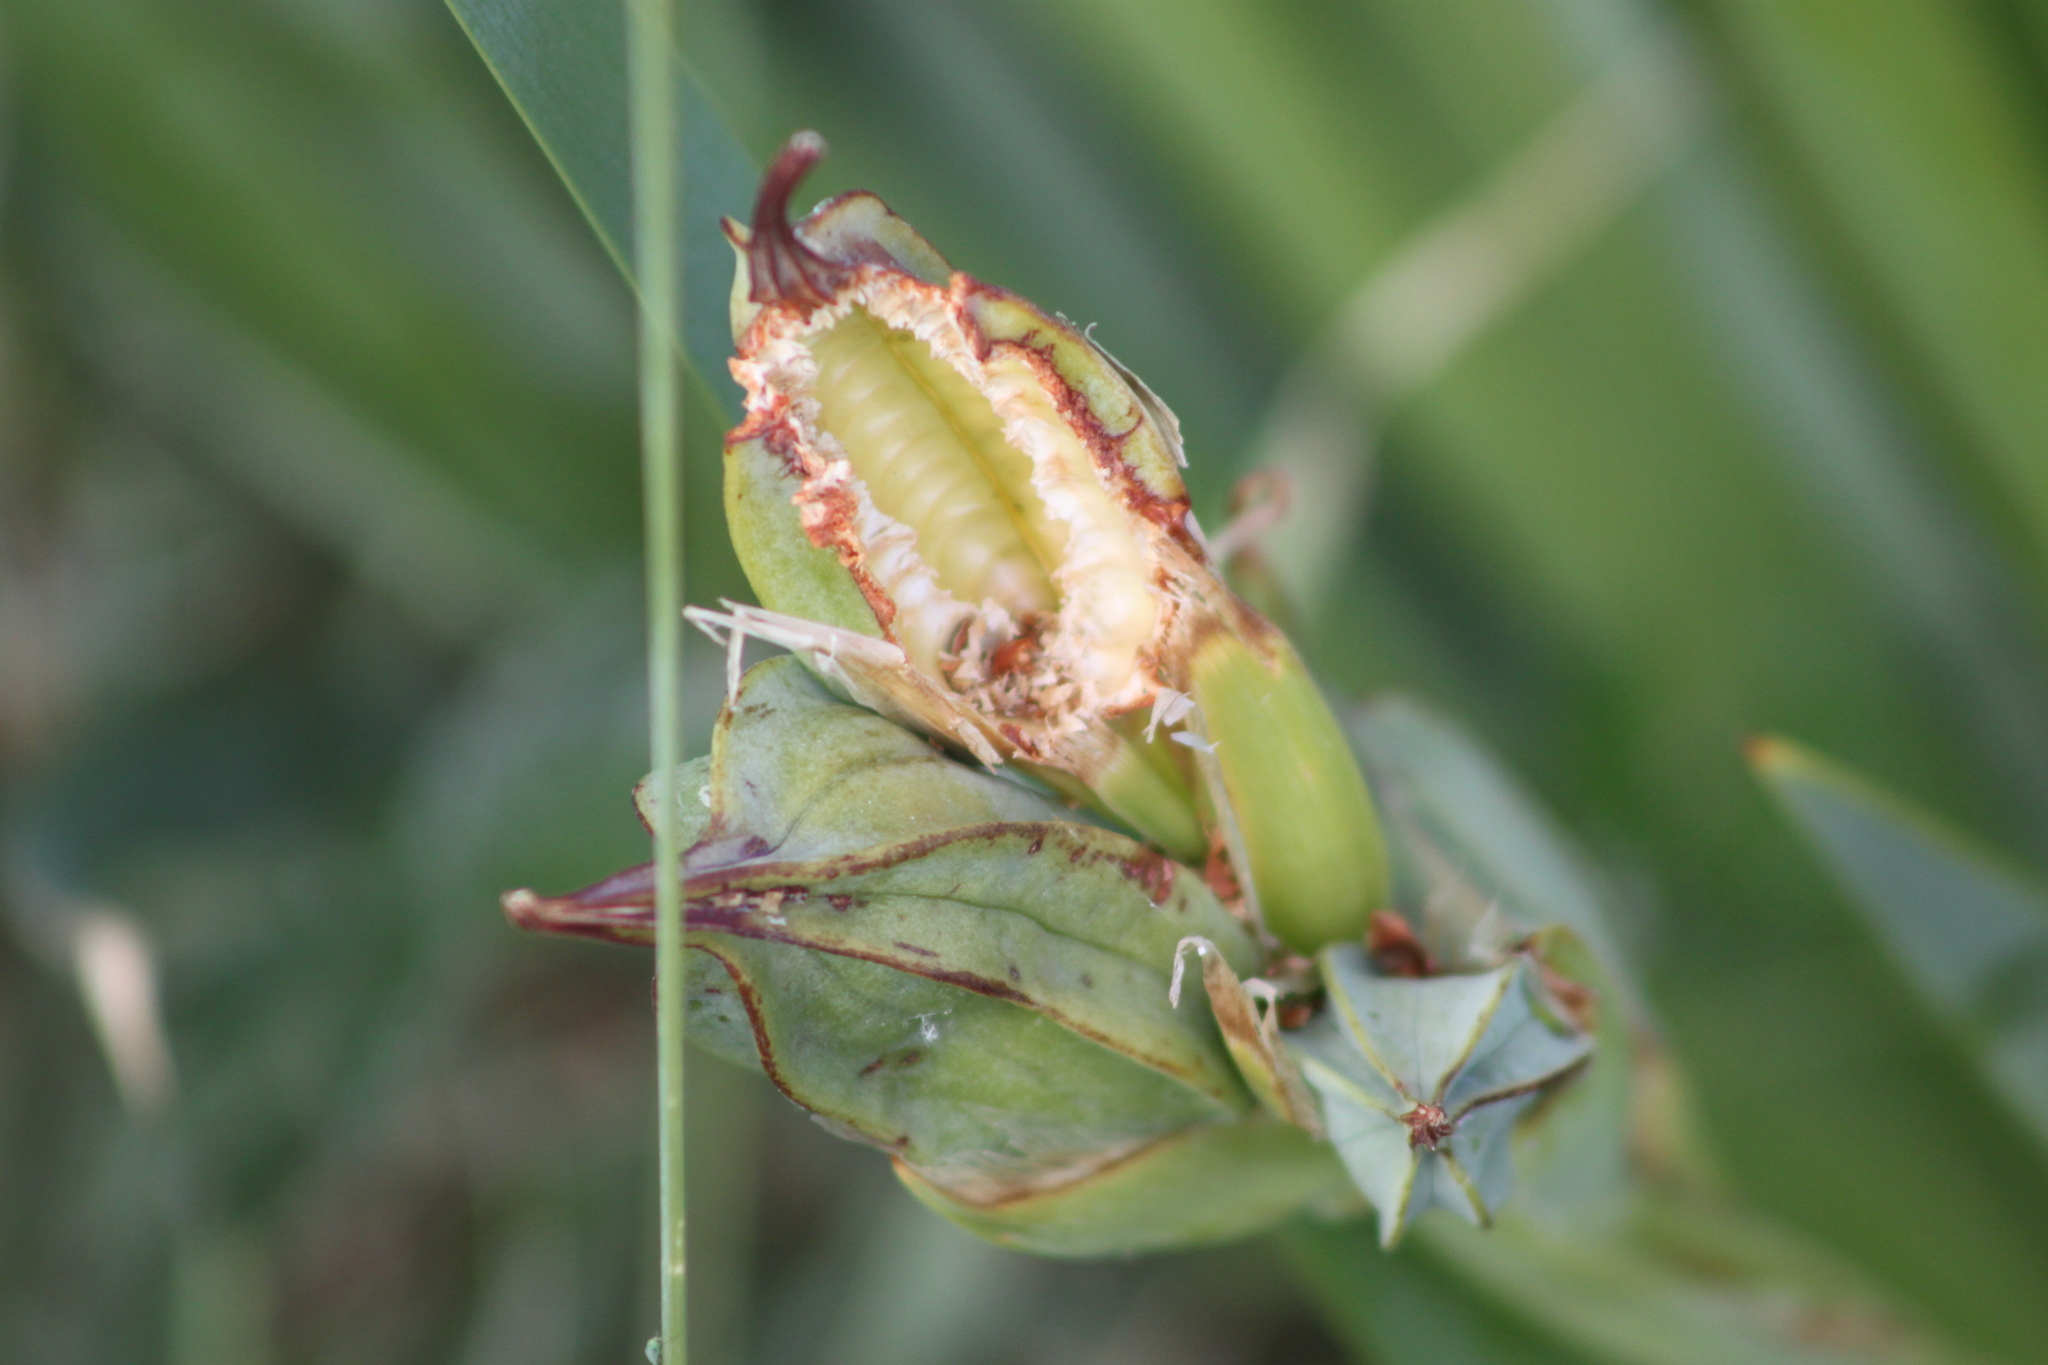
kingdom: Plantae
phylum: Tracheophyta
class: Liliopsida
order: Asparagales
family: Iridaceae
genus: Iris
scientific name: Iris halophila
